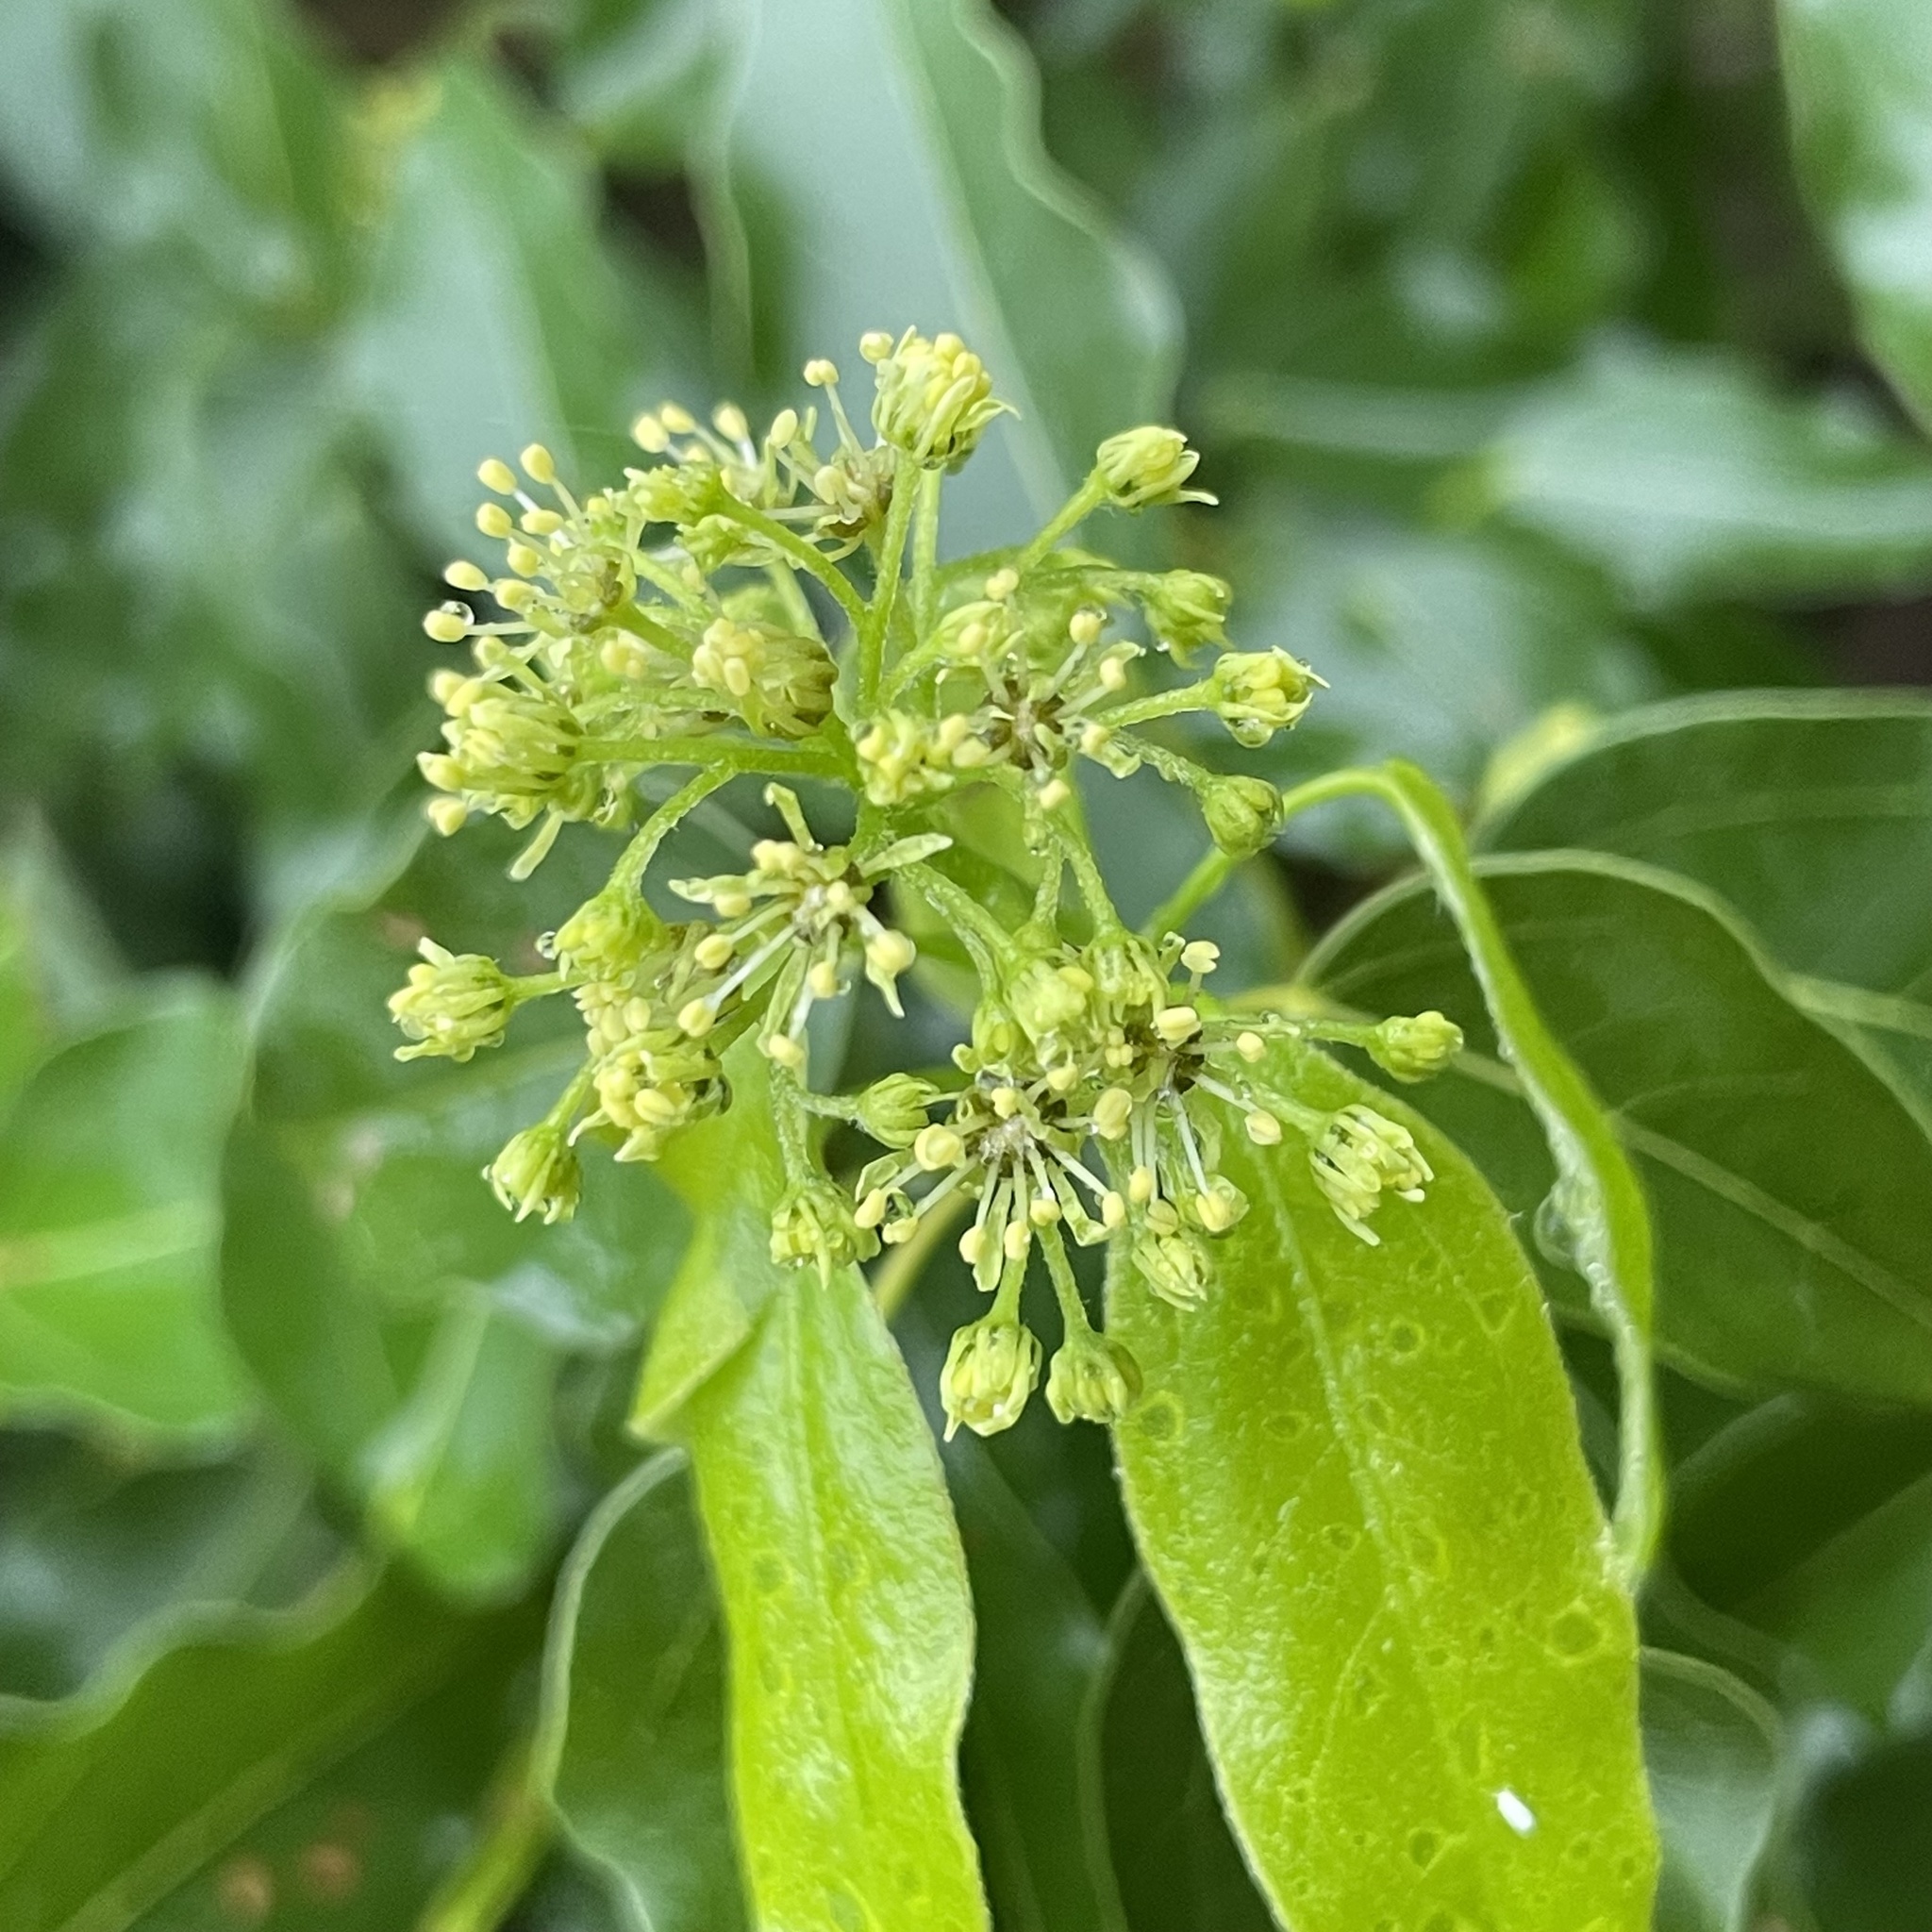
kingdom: Plantae
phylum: Tracheophyta
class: Magnoliopsida
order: Sapindales
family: Sapindaceae
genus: Acer
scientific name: Acer oblongum
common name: Himalayan maple
